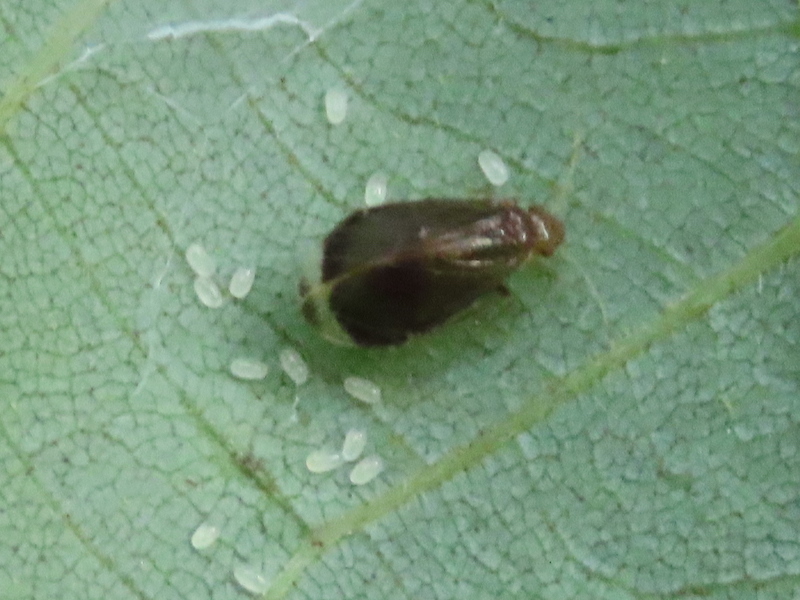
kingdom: Animalia
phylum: Arthropoda
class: Insecta
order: Psocodea
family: Amphipsocidae
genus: Polypsocus
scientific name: Polypsocus corruptus
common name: Corrupt barklouse
